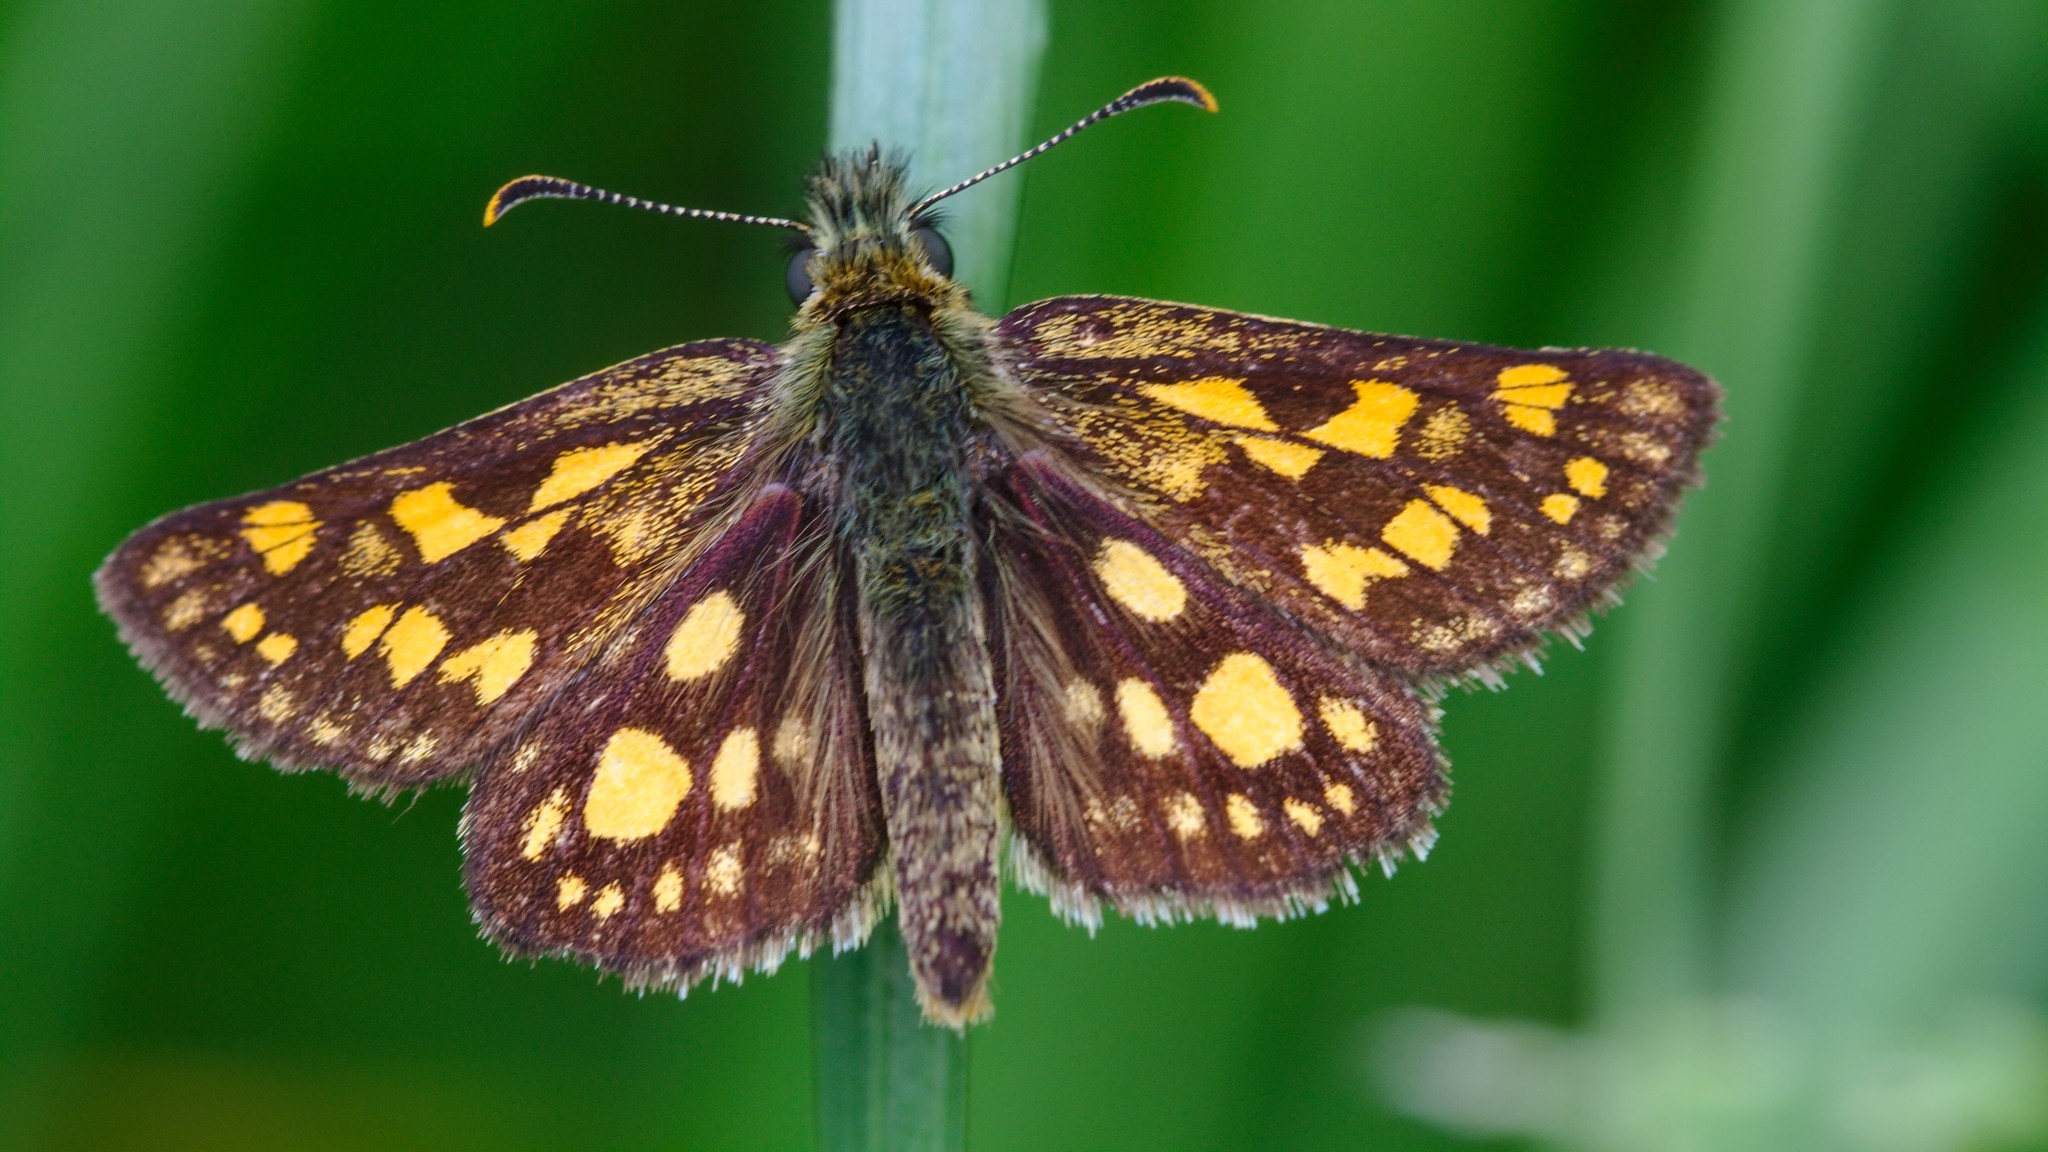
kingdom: Animalia
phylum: Arthropoda
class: Insecta
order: Lepidoptera
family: Hesperiidae
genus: Carterocephalus
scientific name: Carterocephalus palaemon
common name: Chequered skipper
